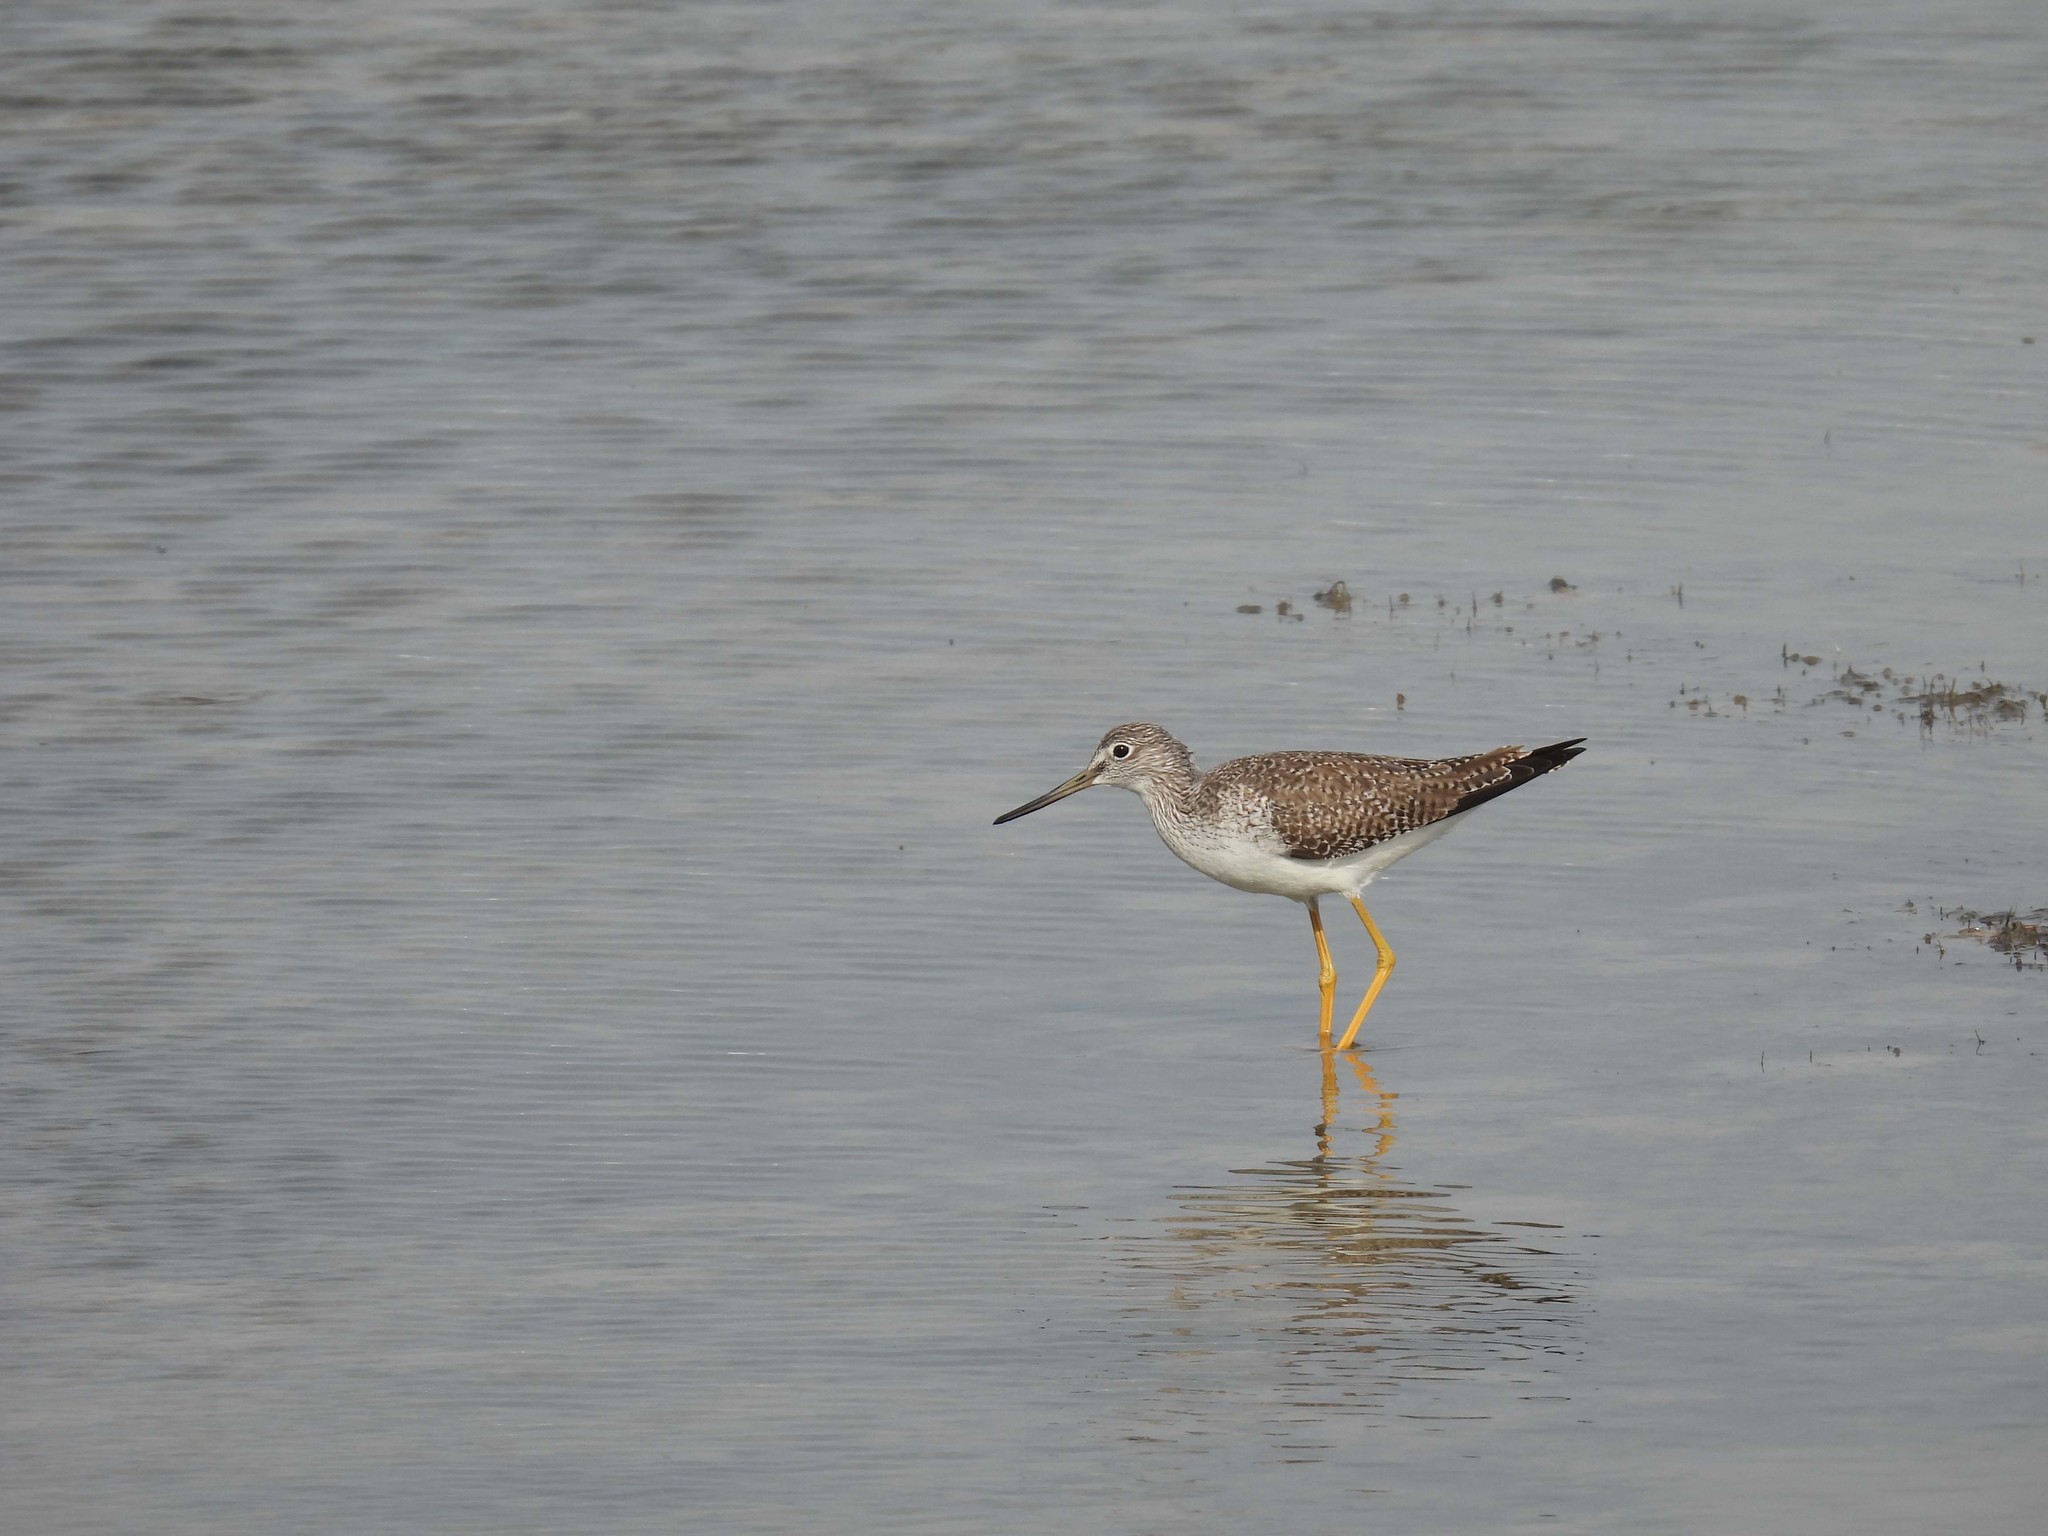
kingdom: Animalia
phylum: Chordata
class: Aves
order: Charadriiformes
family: Scolopacidae
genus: Tringa
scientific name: Tringa melanoleuca
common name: Greater yellowlegs
